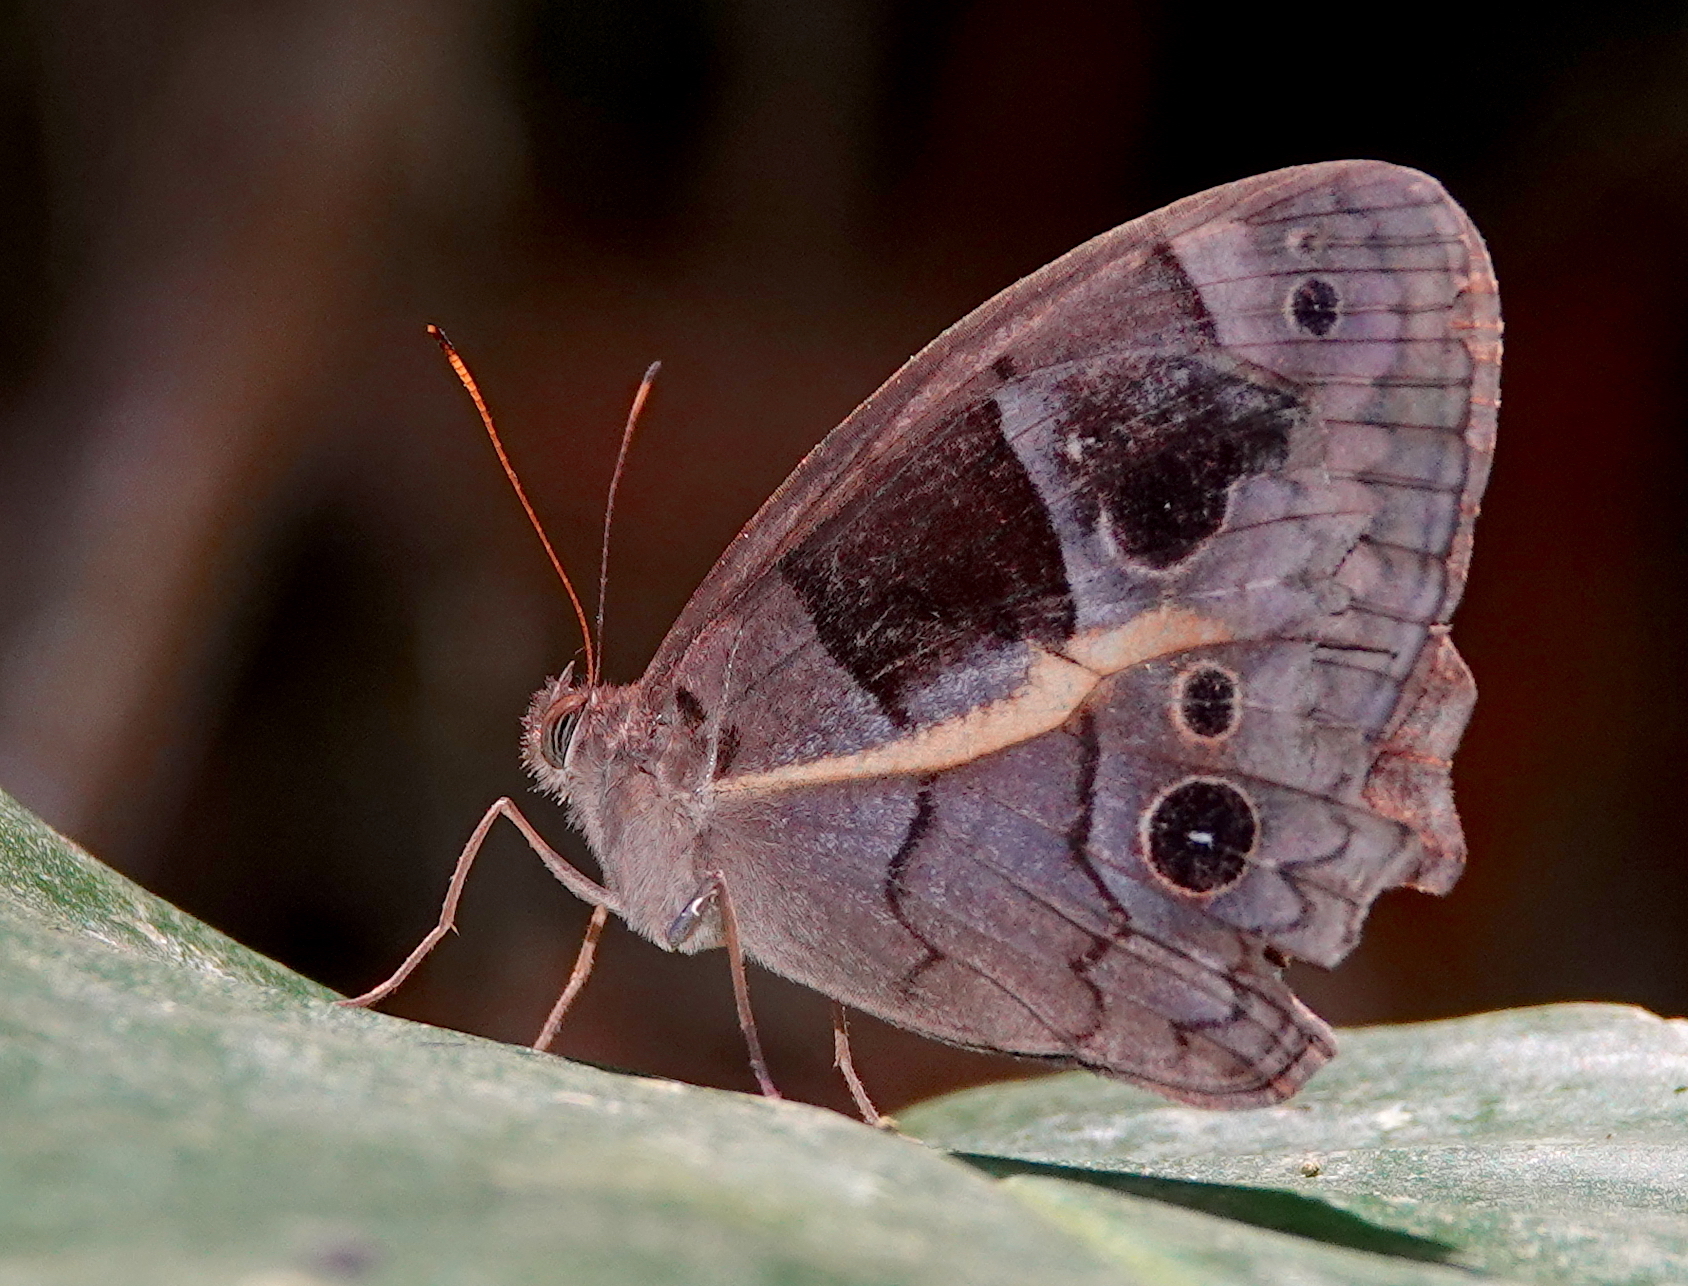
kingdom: Animalia
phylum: Arthropoda
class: Insecta
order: Lepidoptera
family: Nymphalidae
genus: Posttaygetis
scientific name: Posttaygetis penelea
